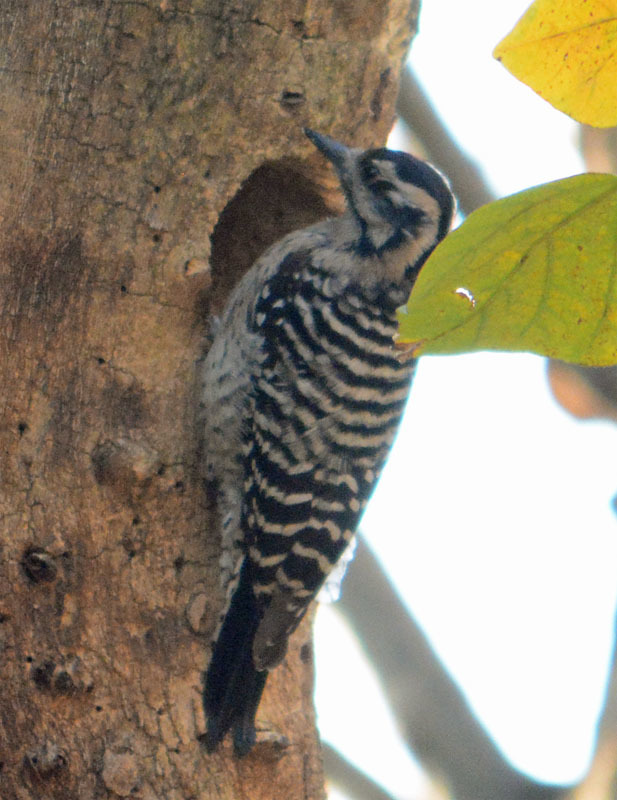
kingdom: Animalia
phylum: Chordata
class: Aves
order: Piciformes
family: Picidae
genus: Dryobates
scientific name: Dryobates scalaris
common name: Ladder-backed woodpecker
